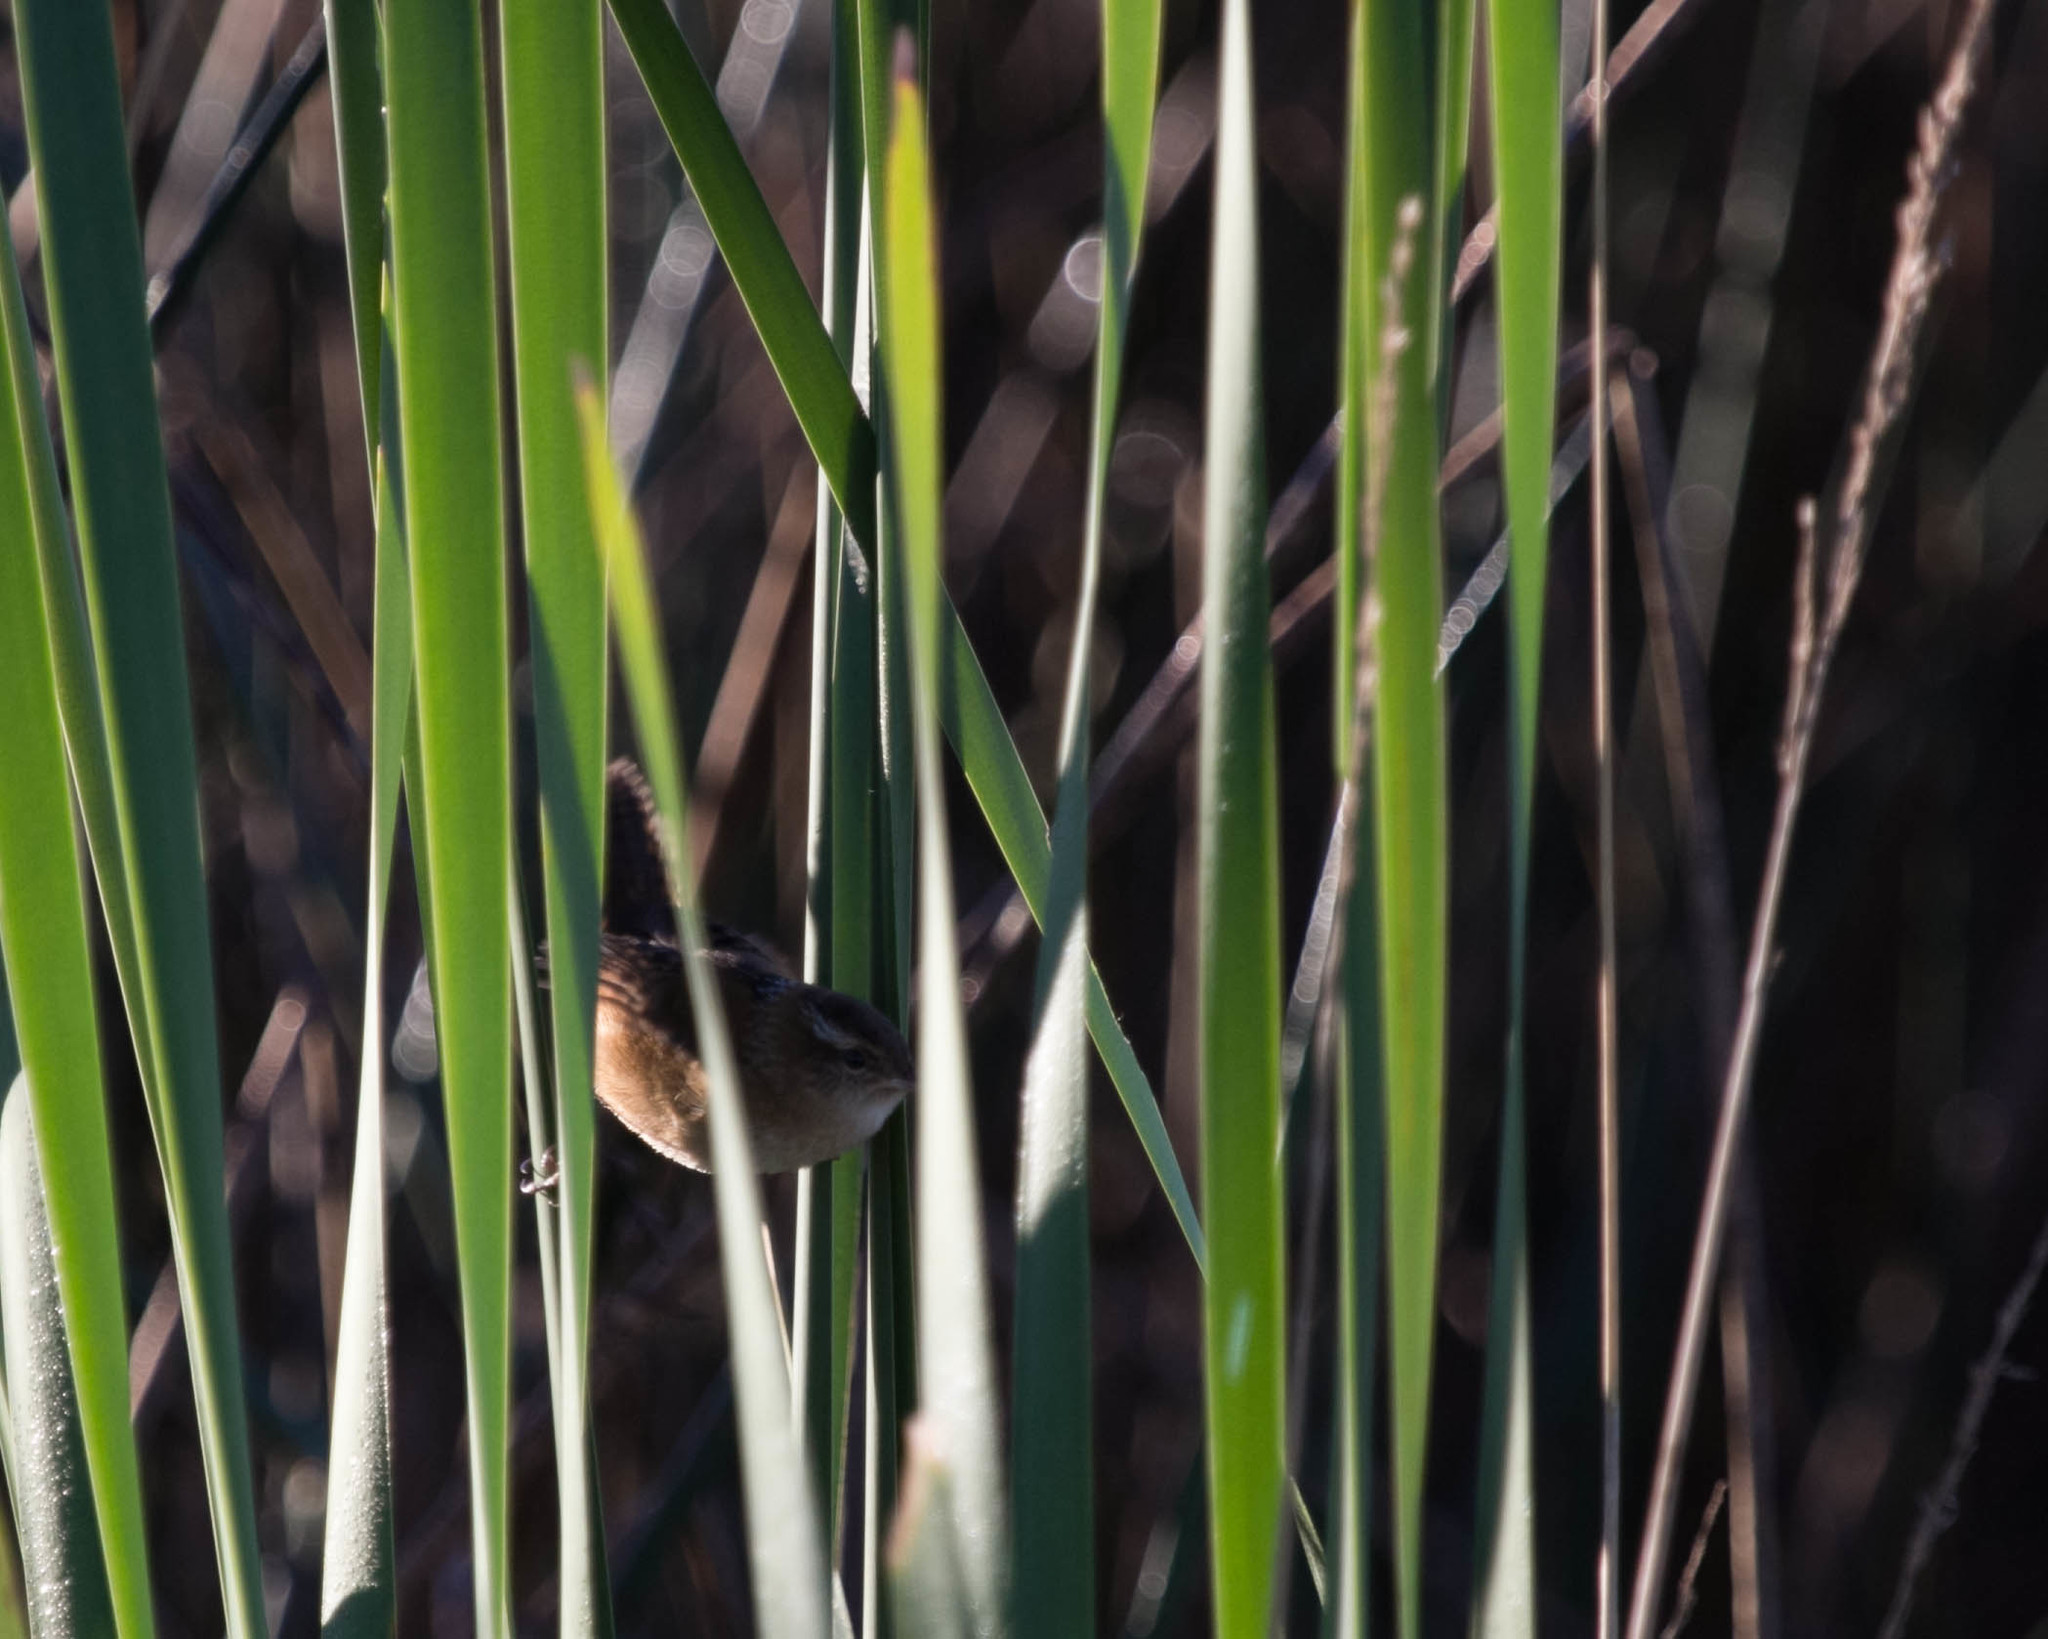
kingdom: Animalia
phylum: Chordata
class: Aves
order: Passeriformes
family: Troglodytidae
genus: Cistothorus
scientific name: Cistothorus palustris
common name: Marsh wren
